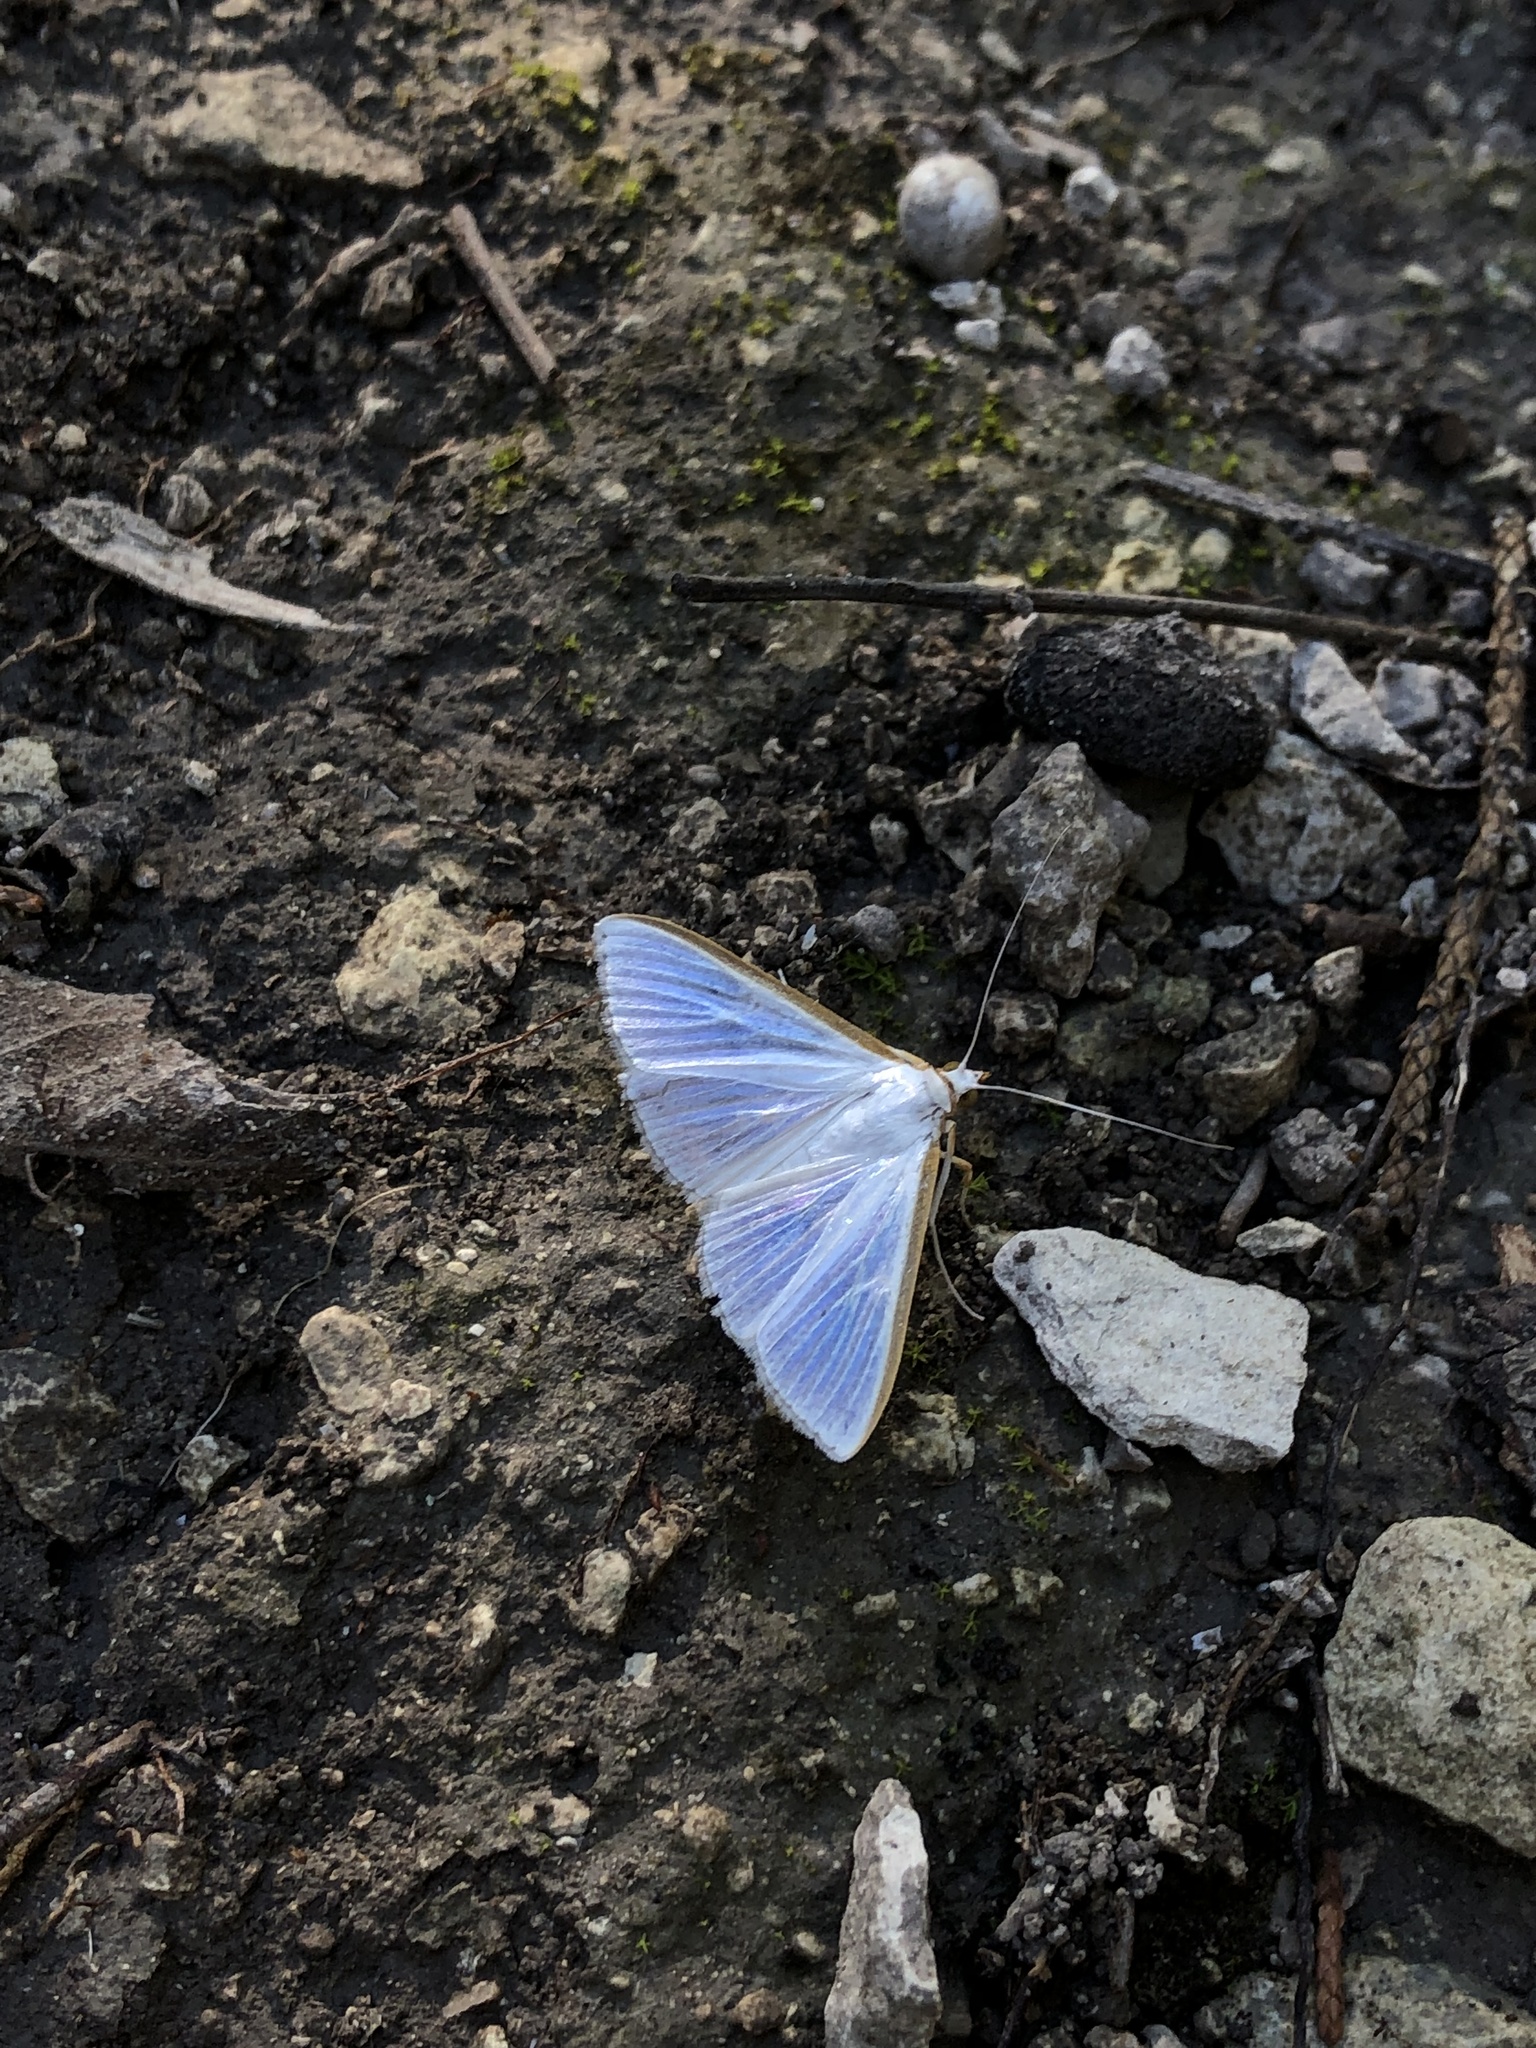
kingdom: Animalia
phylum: Arthropoda
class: Insecta
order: Lepidoptera
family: Crambidae
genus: Diaphania
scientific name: Diaphania costata
